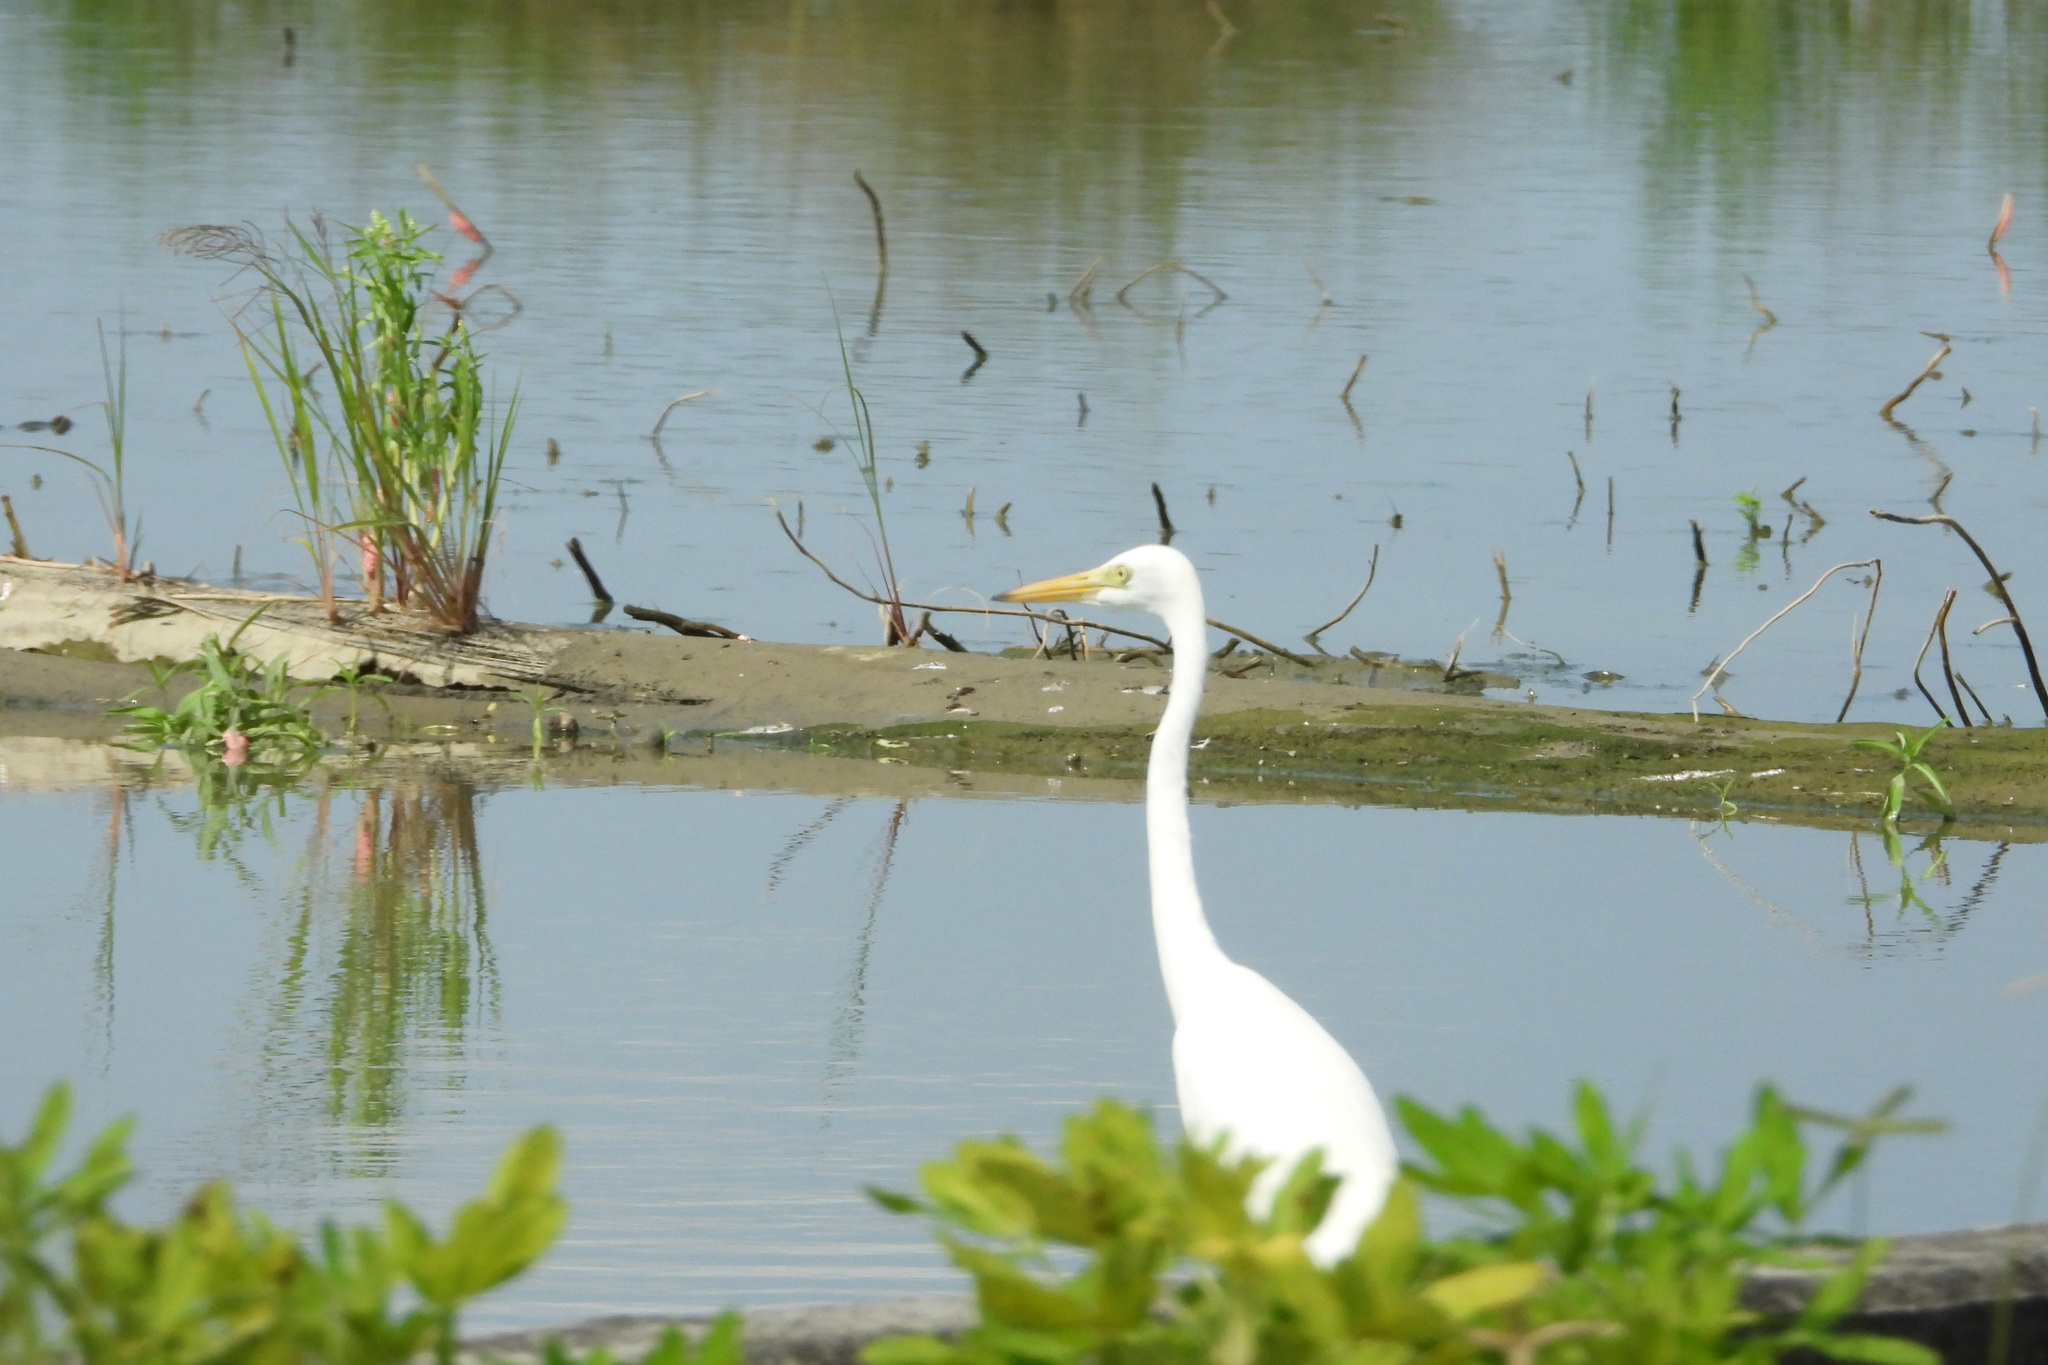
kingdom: Animalia
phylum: Chordata
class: Aves
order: Pelecaniformes
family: Ardeidae
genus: Egretta
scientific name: Egretta intermedia
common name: Intermediate egret
